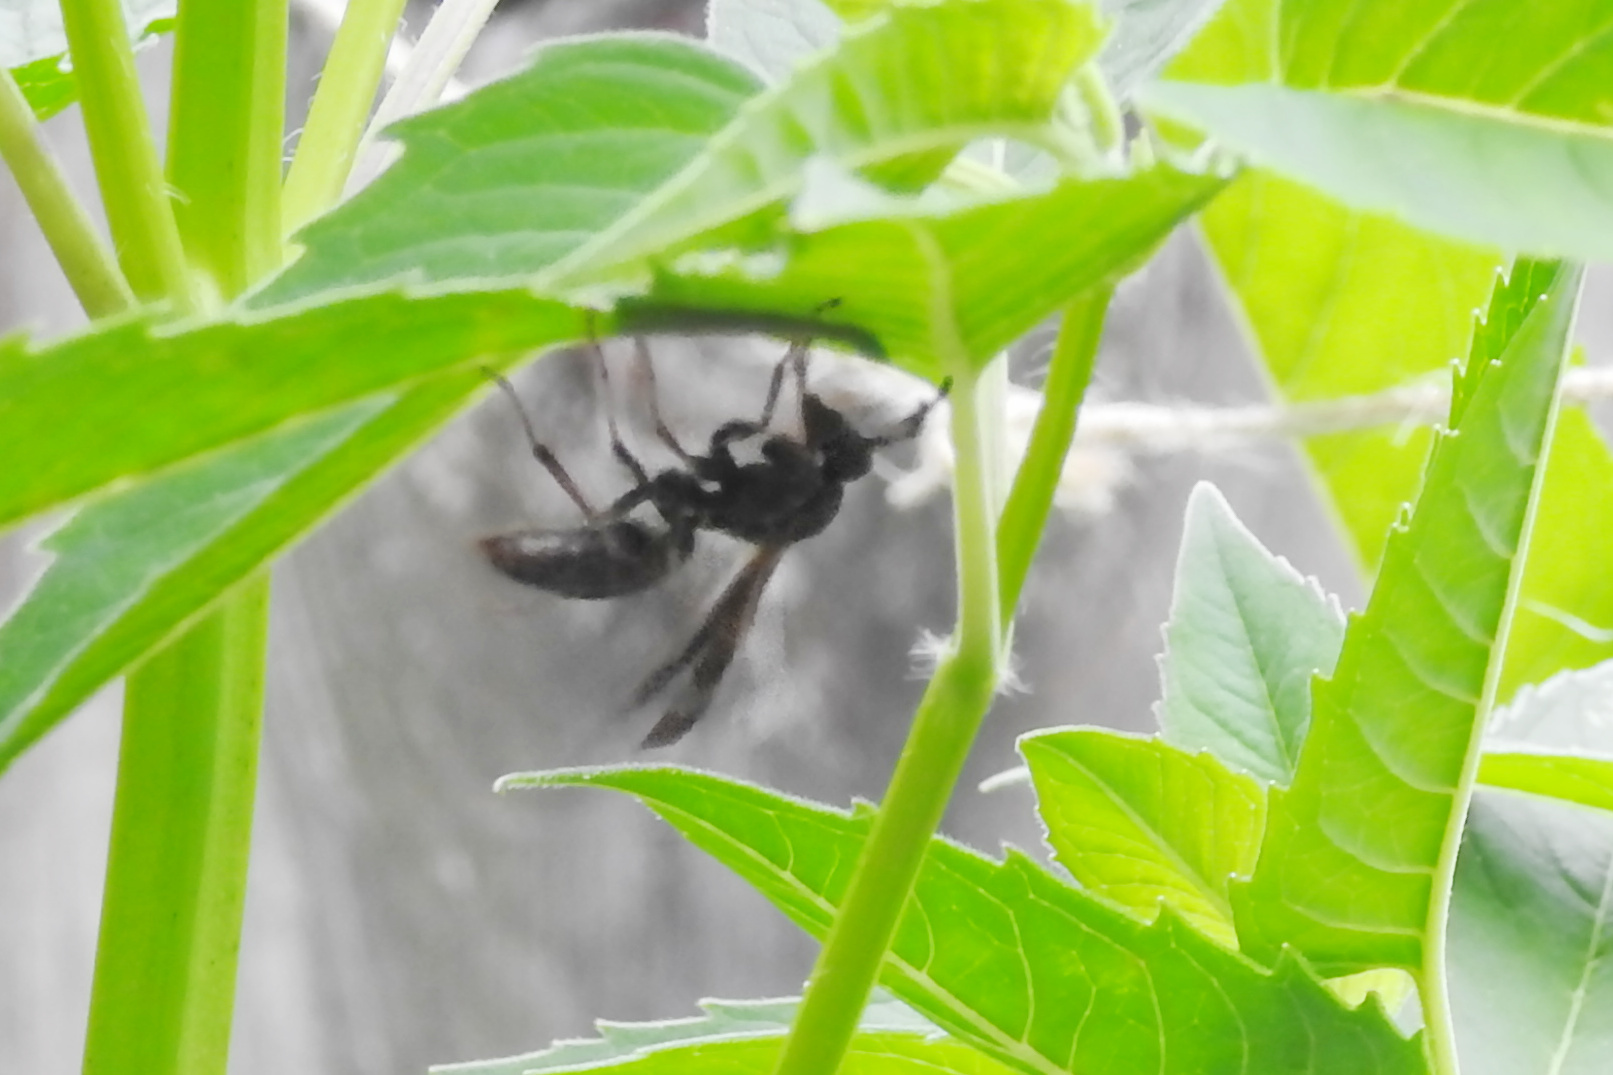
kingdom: Animalia
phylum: Arthropoda
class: Insecta
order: Hymenoptera
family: Vespidae
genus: Fuscopolistes
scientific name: Fuscopolistes
